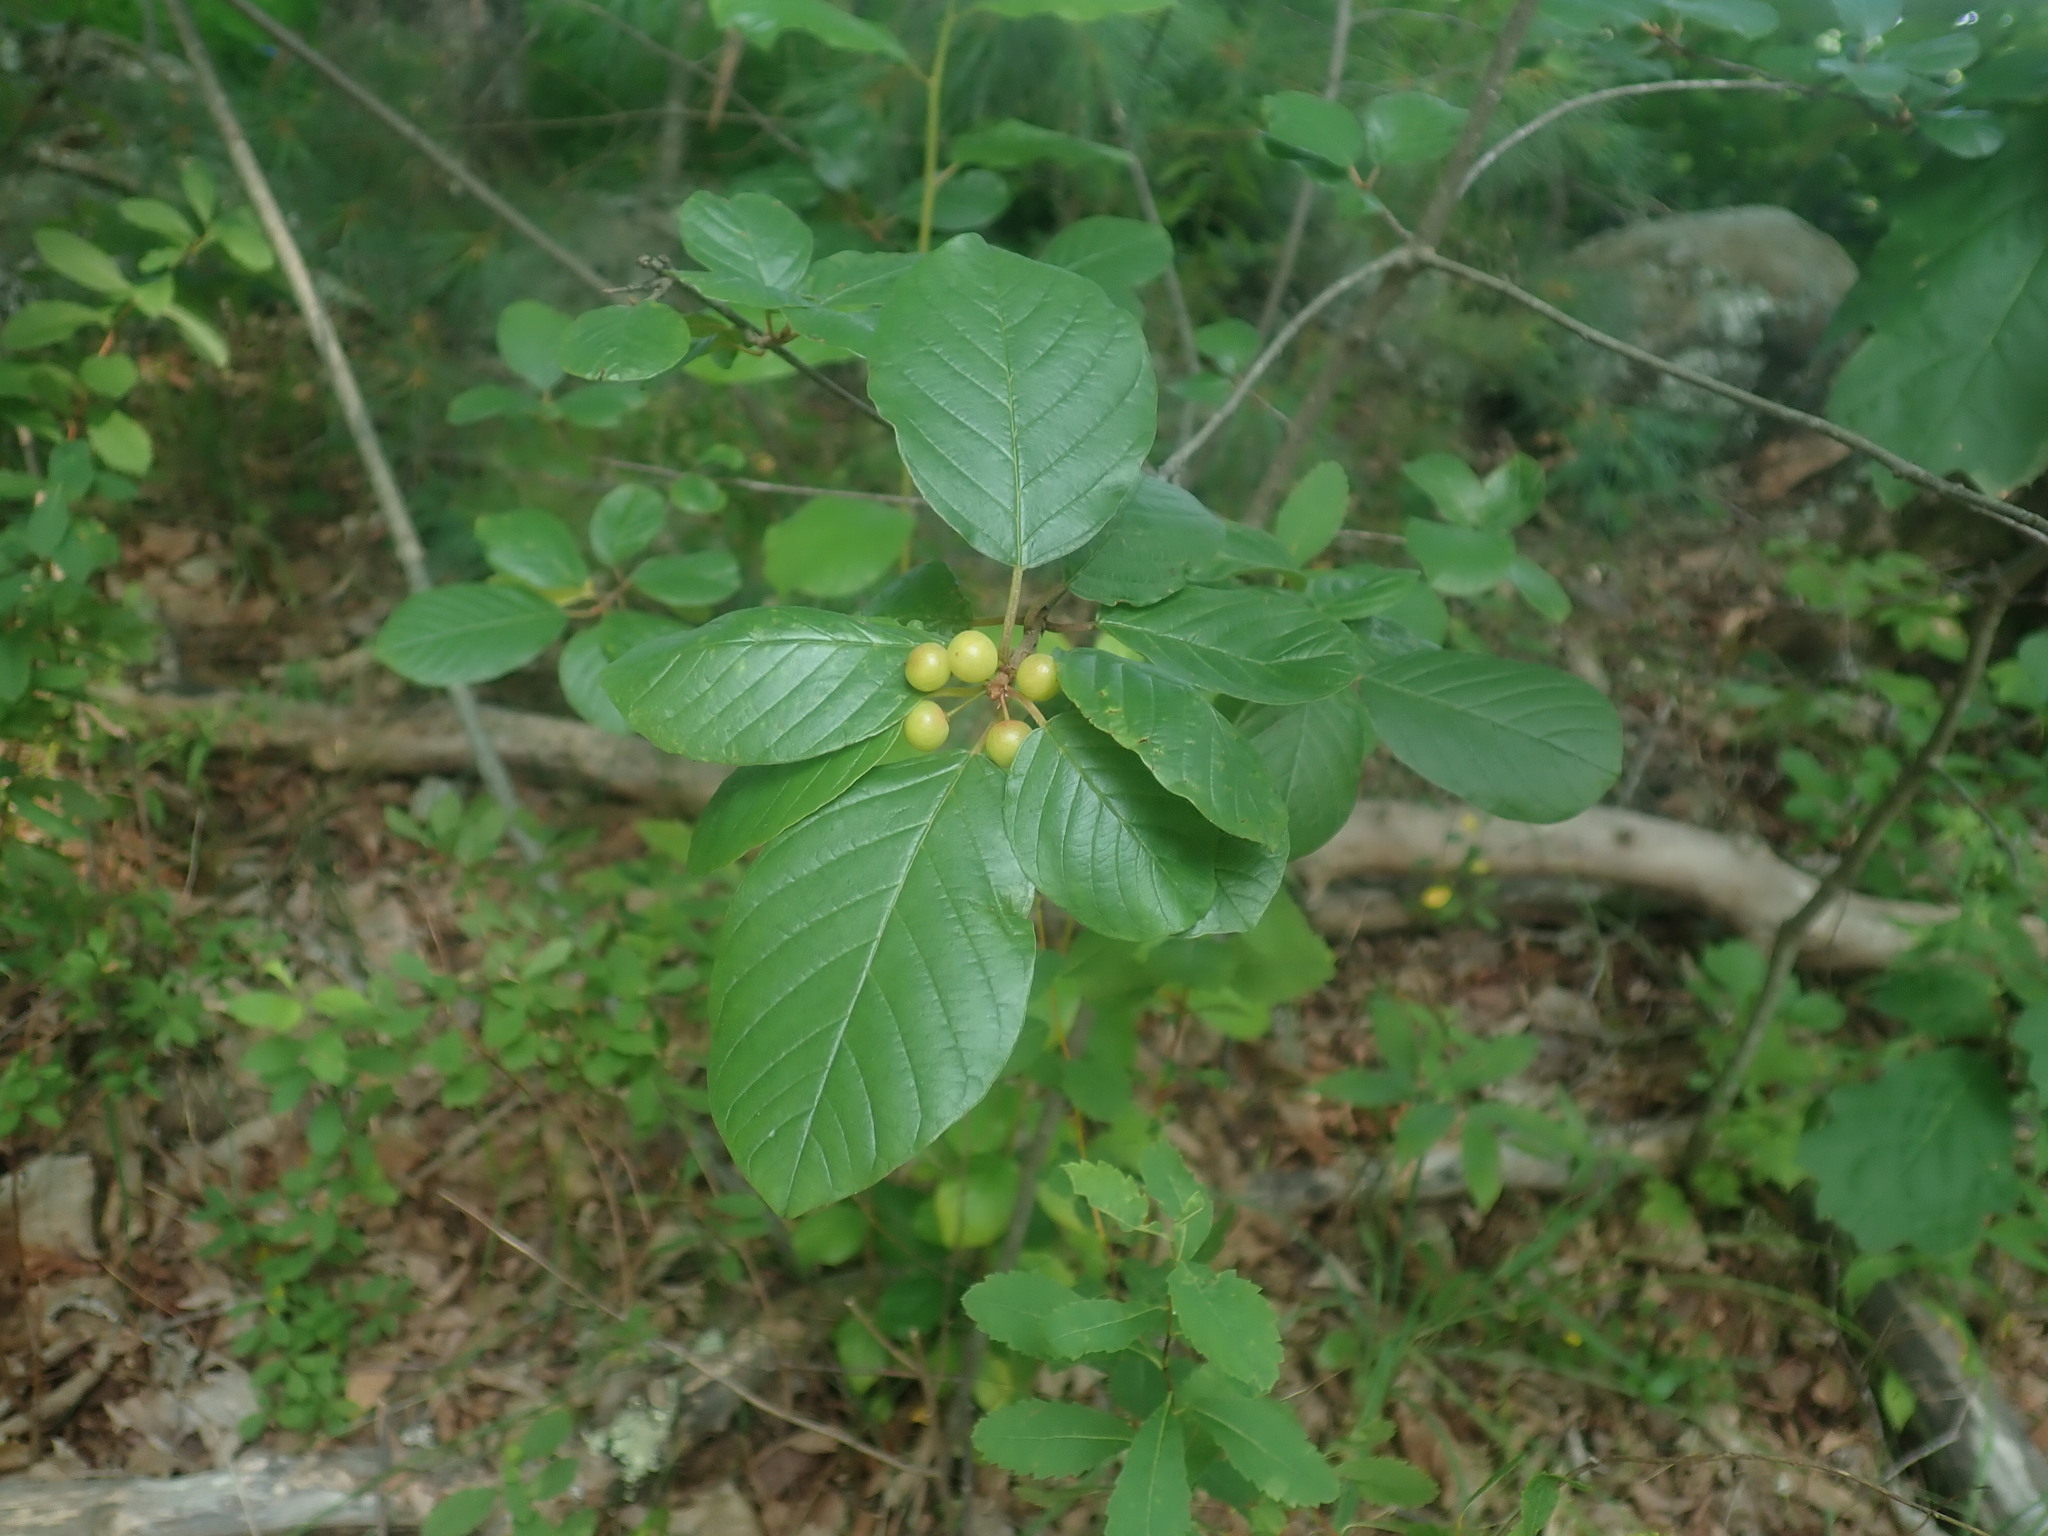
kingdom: Plantae
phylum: Tracheophyta
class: Magnoliopsida
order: Rosales
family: Rhamnaceae
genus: Frangula
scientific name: Frangula alnus
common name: Alder buckthorn
